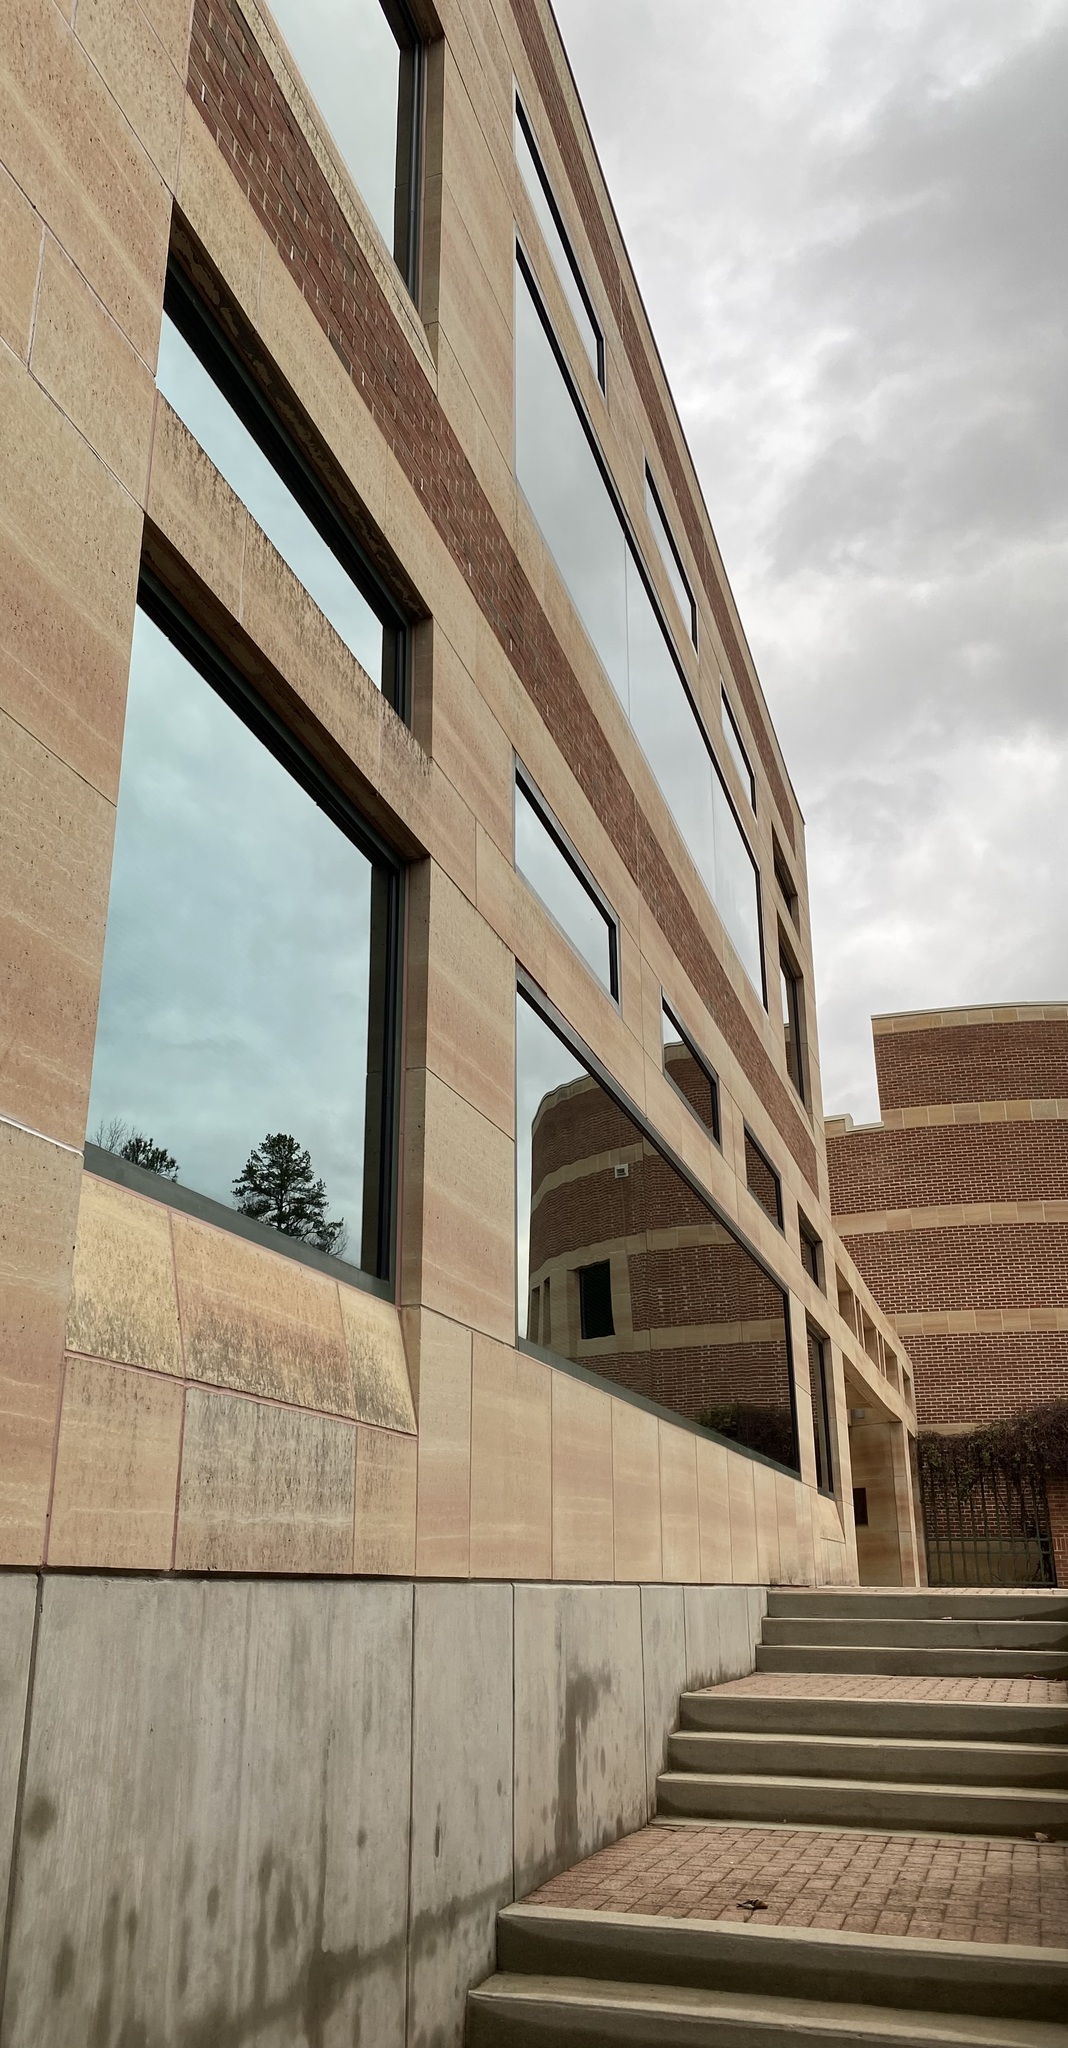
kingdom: Animalia
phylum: Chordata
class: Aves
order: Passeriformes
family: Fringillidae
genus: Spinus
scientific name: Spinus tristis
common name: American goldfinch
